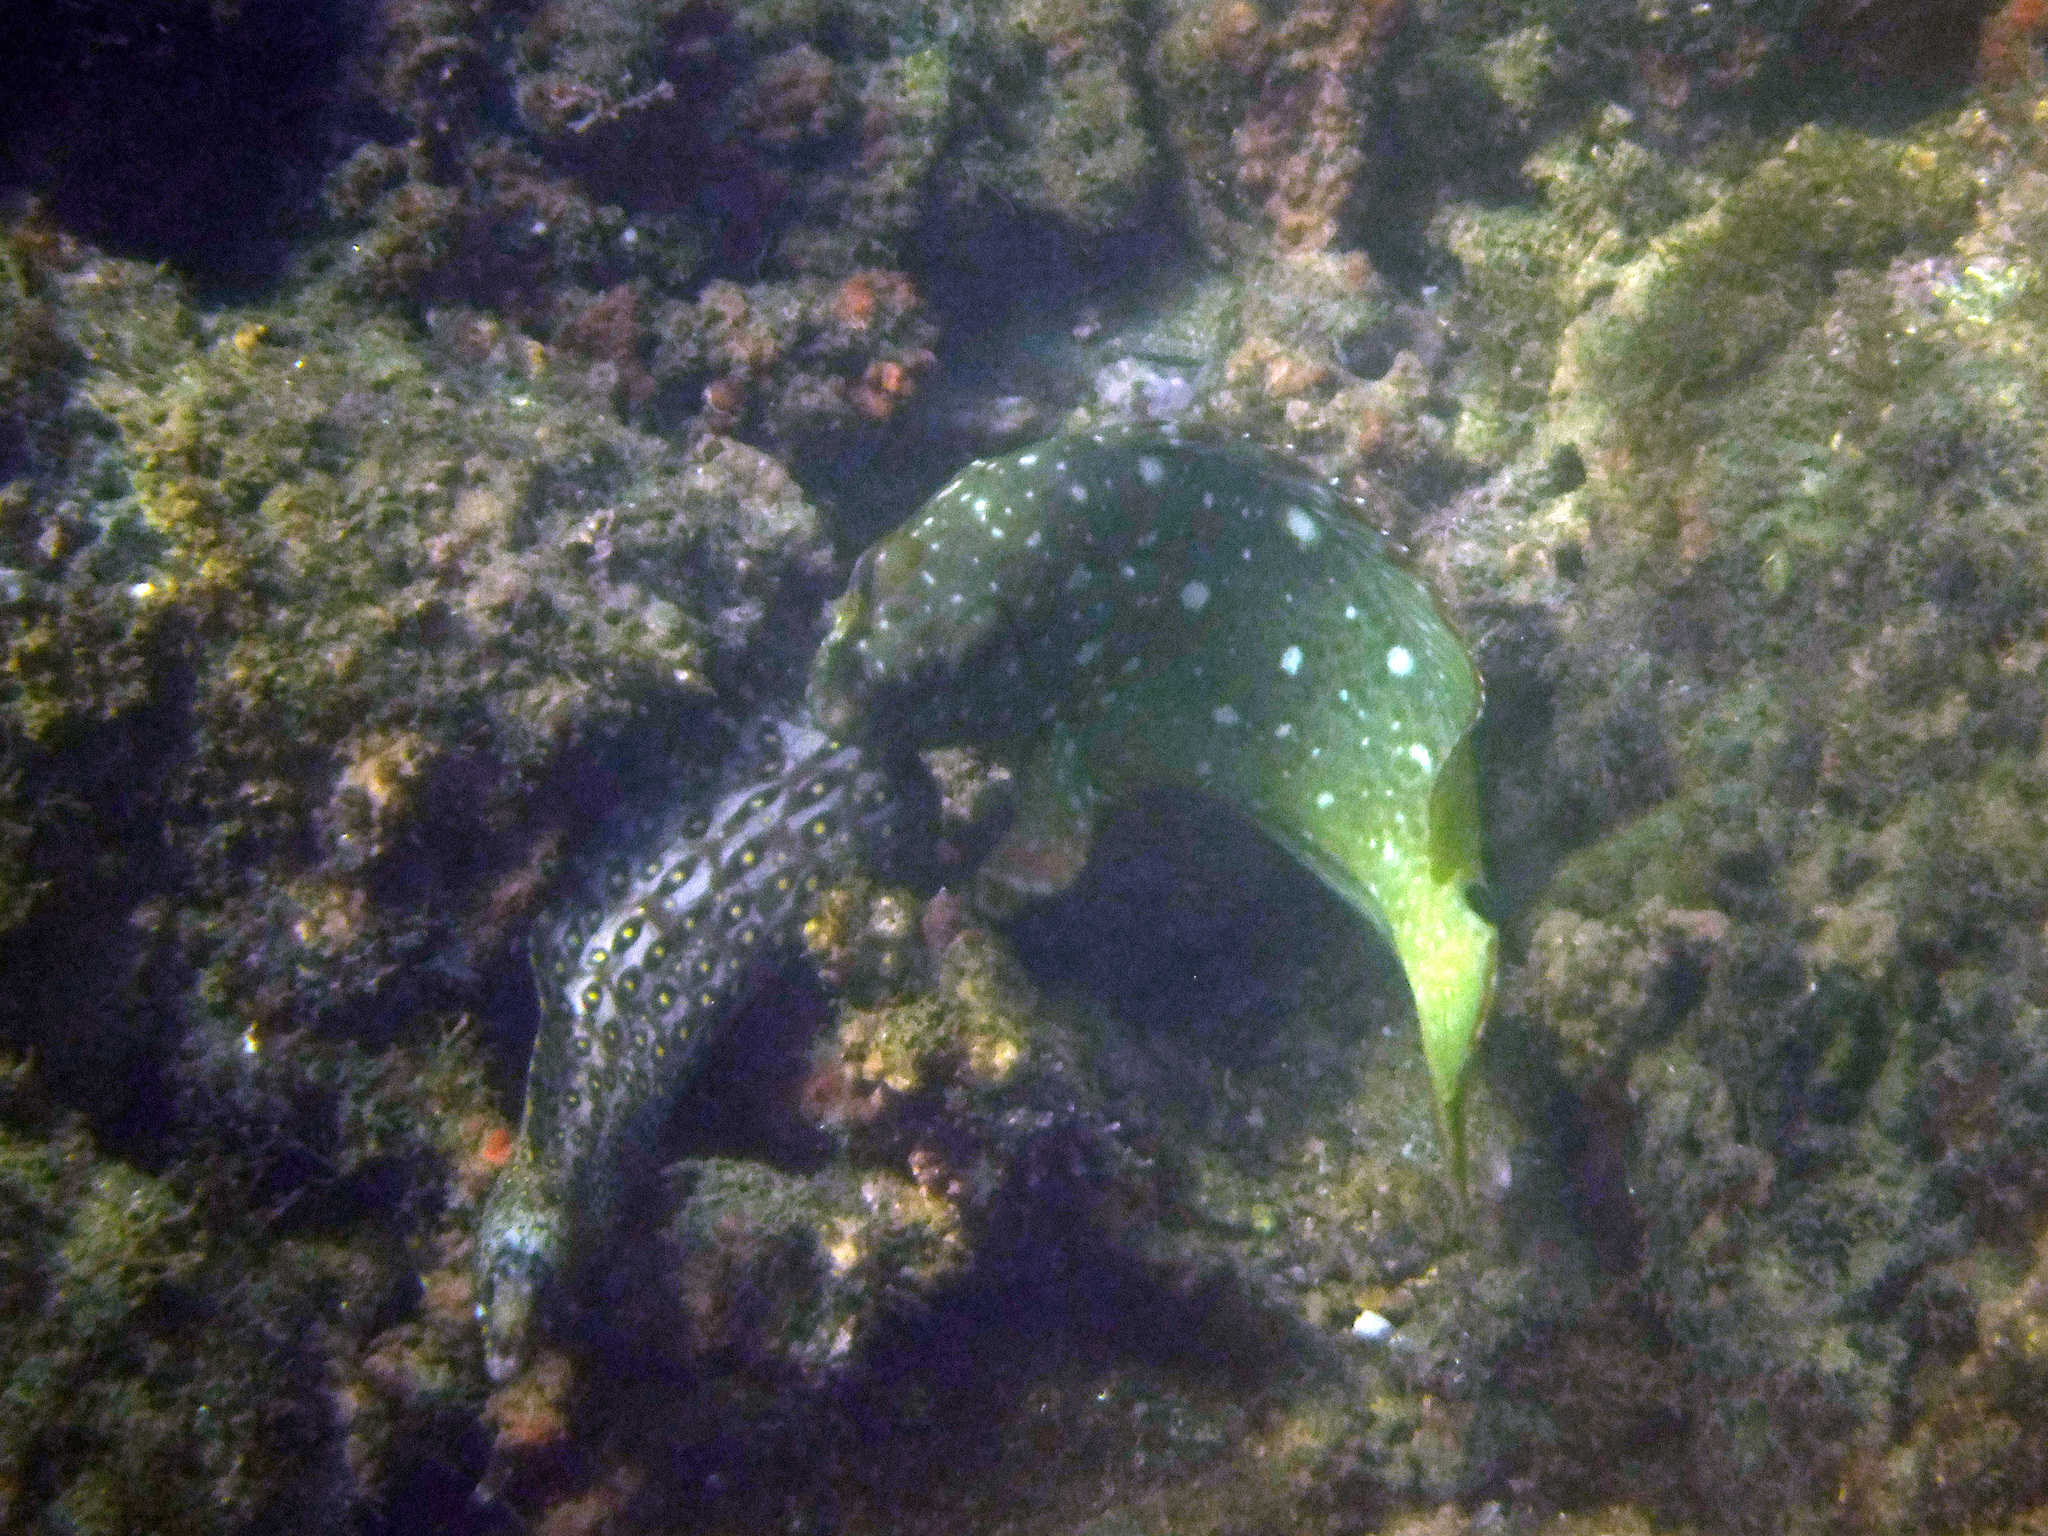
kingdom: Animalia
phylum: Chordata
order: Anguilliformes
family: Muraenidae
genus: Muraena
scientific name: Muraena lentiginosa
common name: Jewel moray
